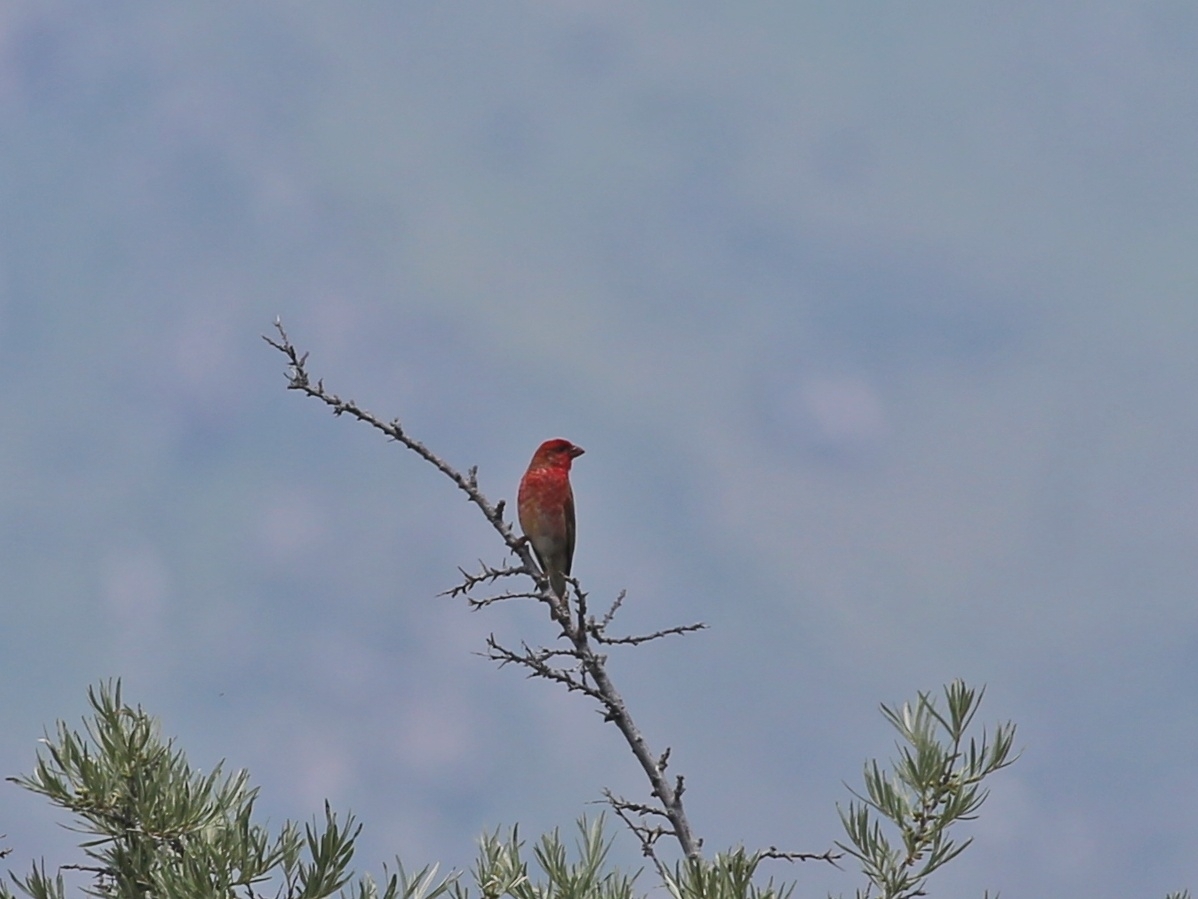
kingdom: Animalia
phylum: Chordata
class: Aves
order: Passeriformes
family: Fringillidae
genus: Carpodacus
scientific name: Carpodacus erythrinus
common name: Common rosefinch
